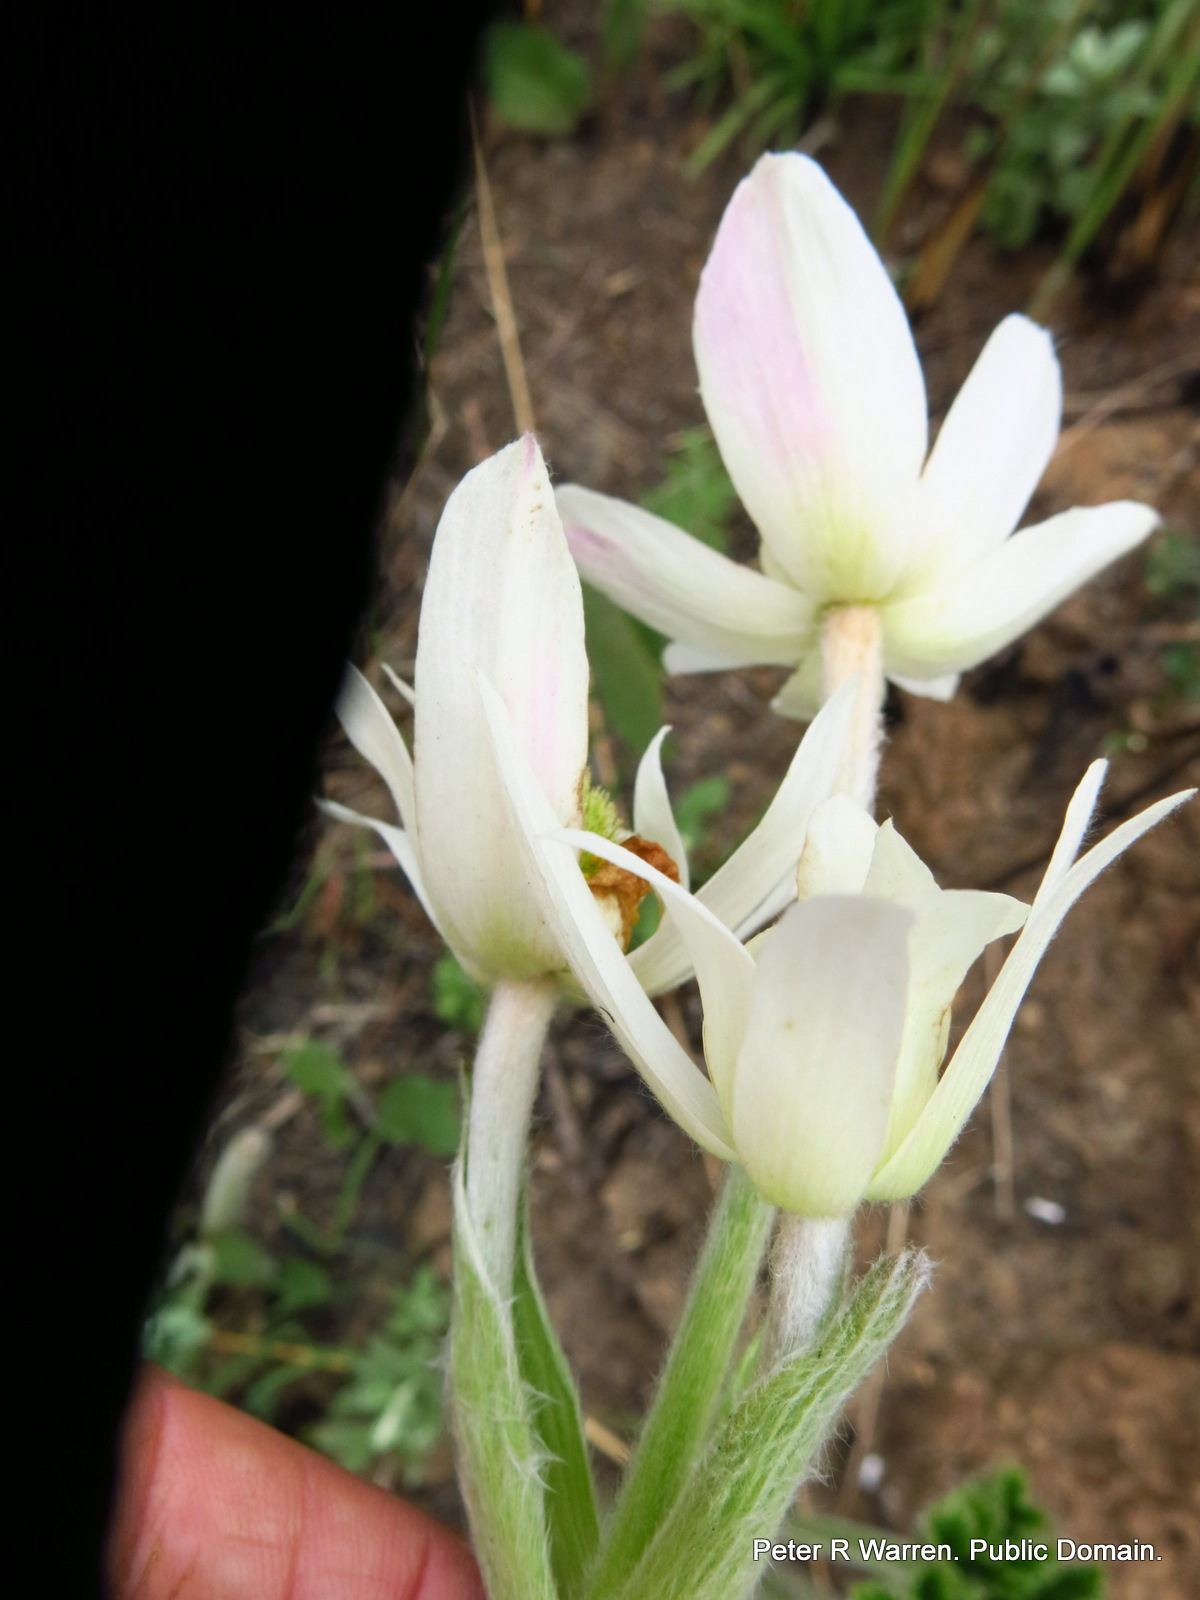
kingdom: Plantae
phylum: Tracheophyta
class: Magnoliopsida
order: Ranunculales
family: Ranunculaceae
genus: Knowltonia
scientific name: Knowltonia fanninii
